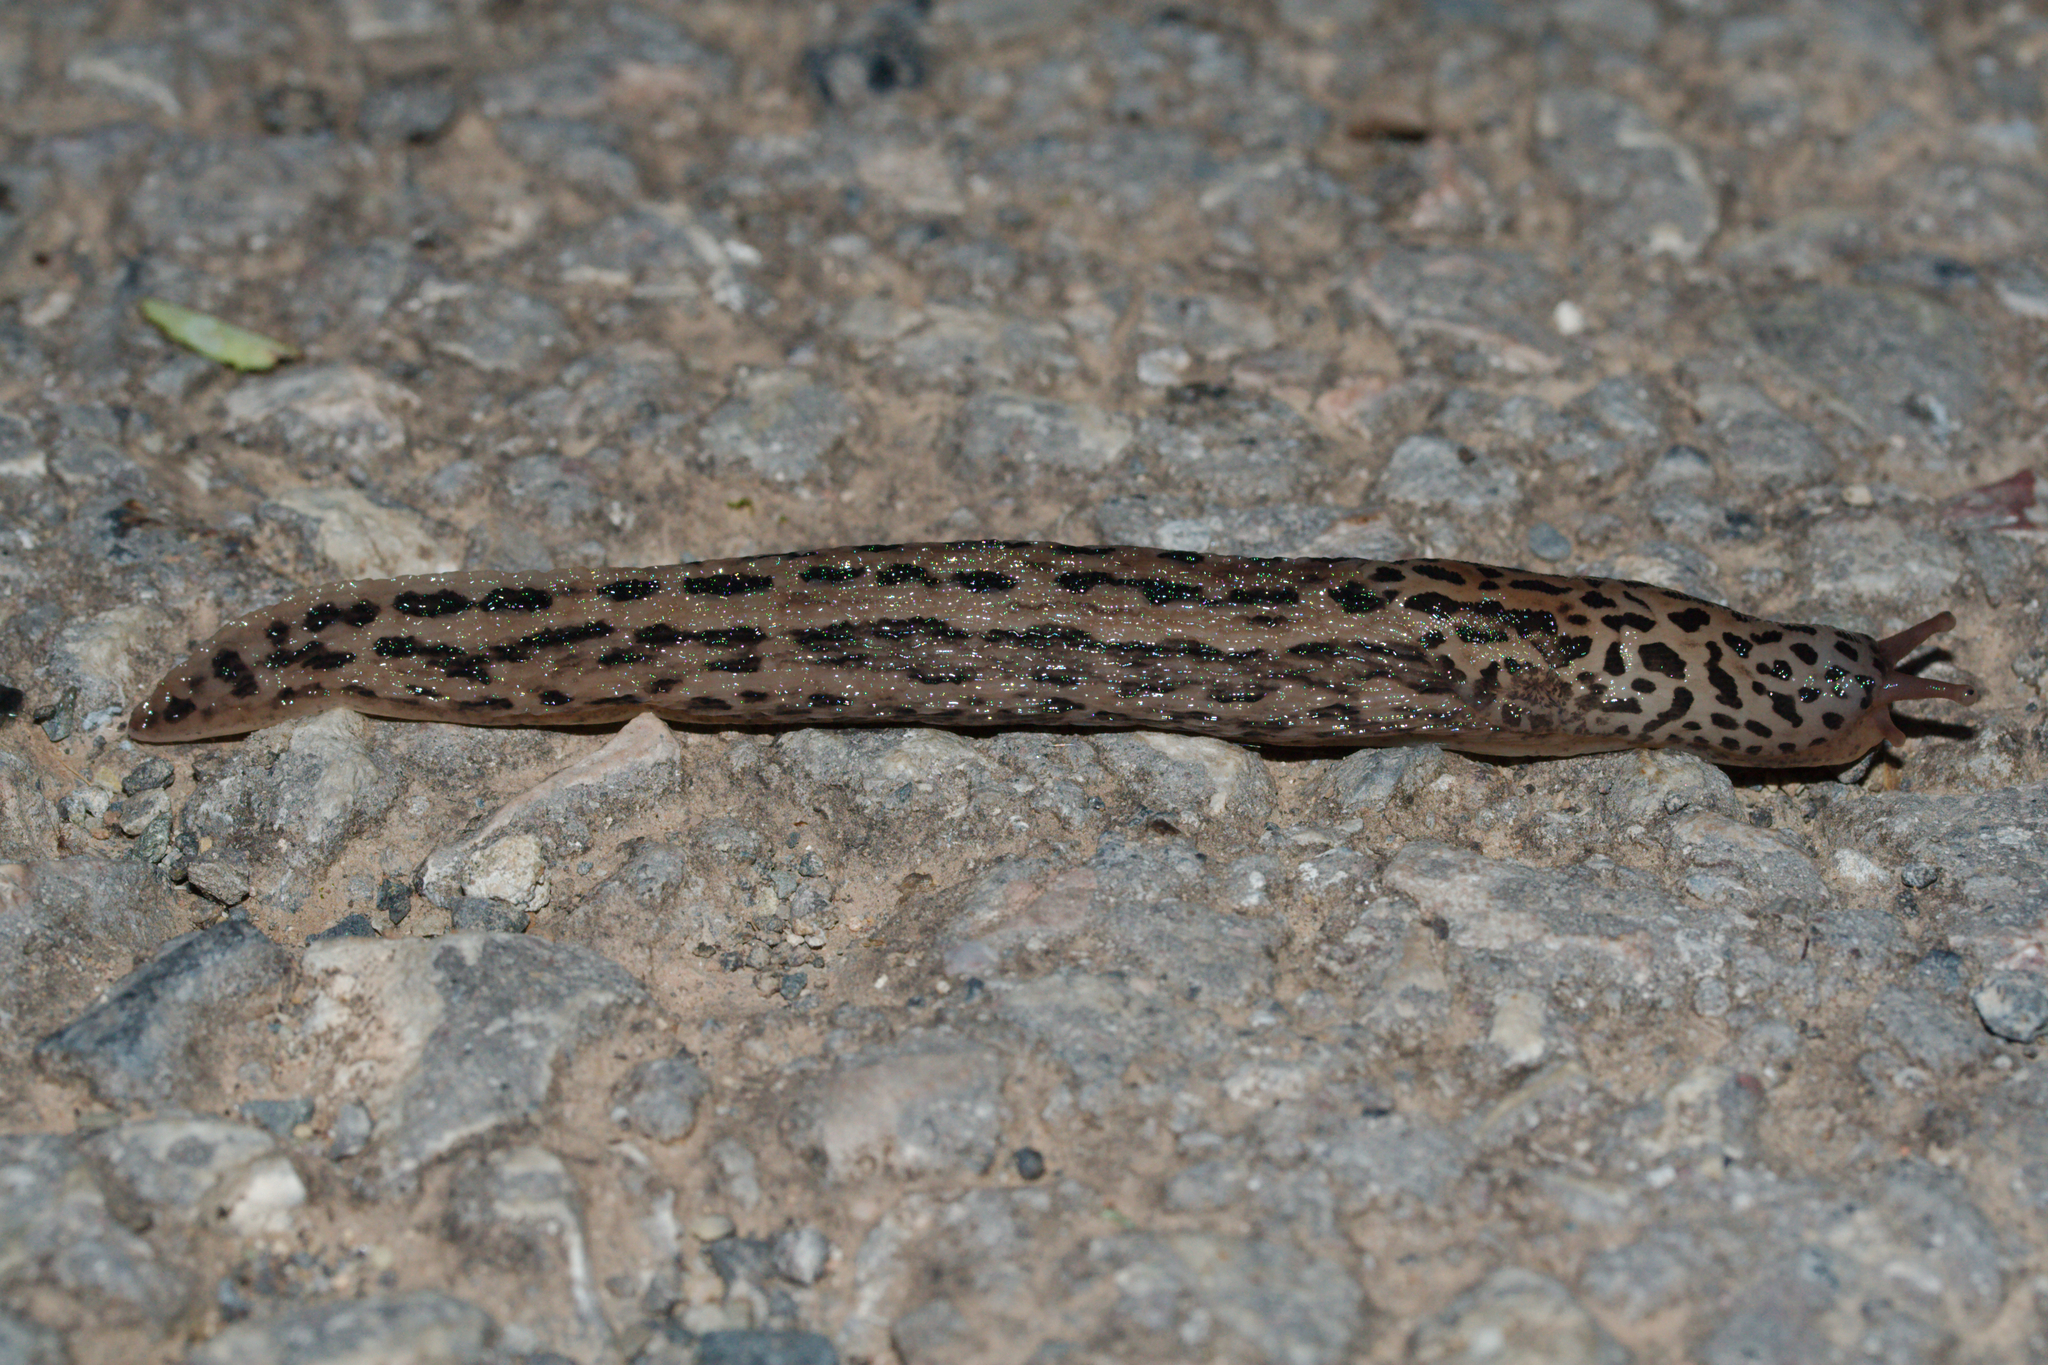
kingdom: Animalia
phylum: Mollusca
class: Gastropoda
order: Stylommatophora
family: Limacidae
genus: Limax
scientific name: Limax maximus
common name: Great grey slug
